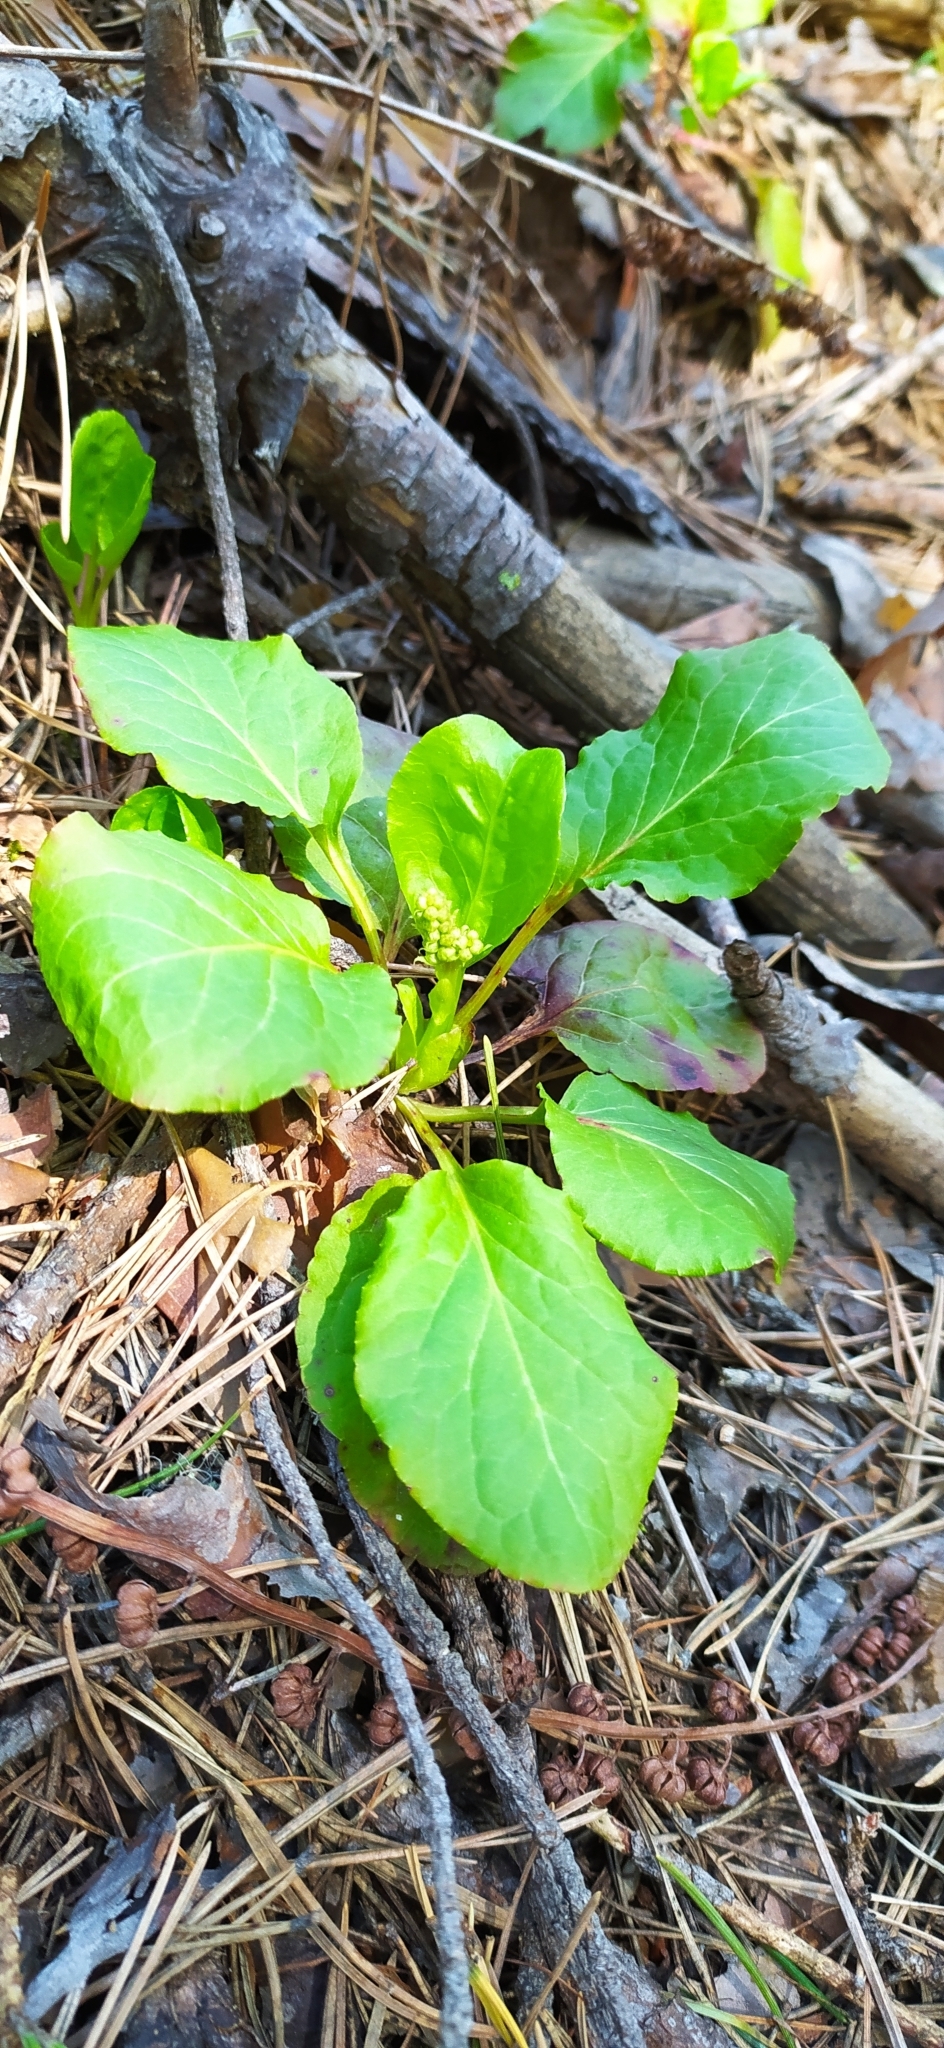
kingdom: Plantae
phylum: Tracheophyta
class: Magnoliopsida
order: Ericales
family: Ericaceae
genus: Orthilia
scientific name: Orthilia secunda
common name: One-sided orthilia
